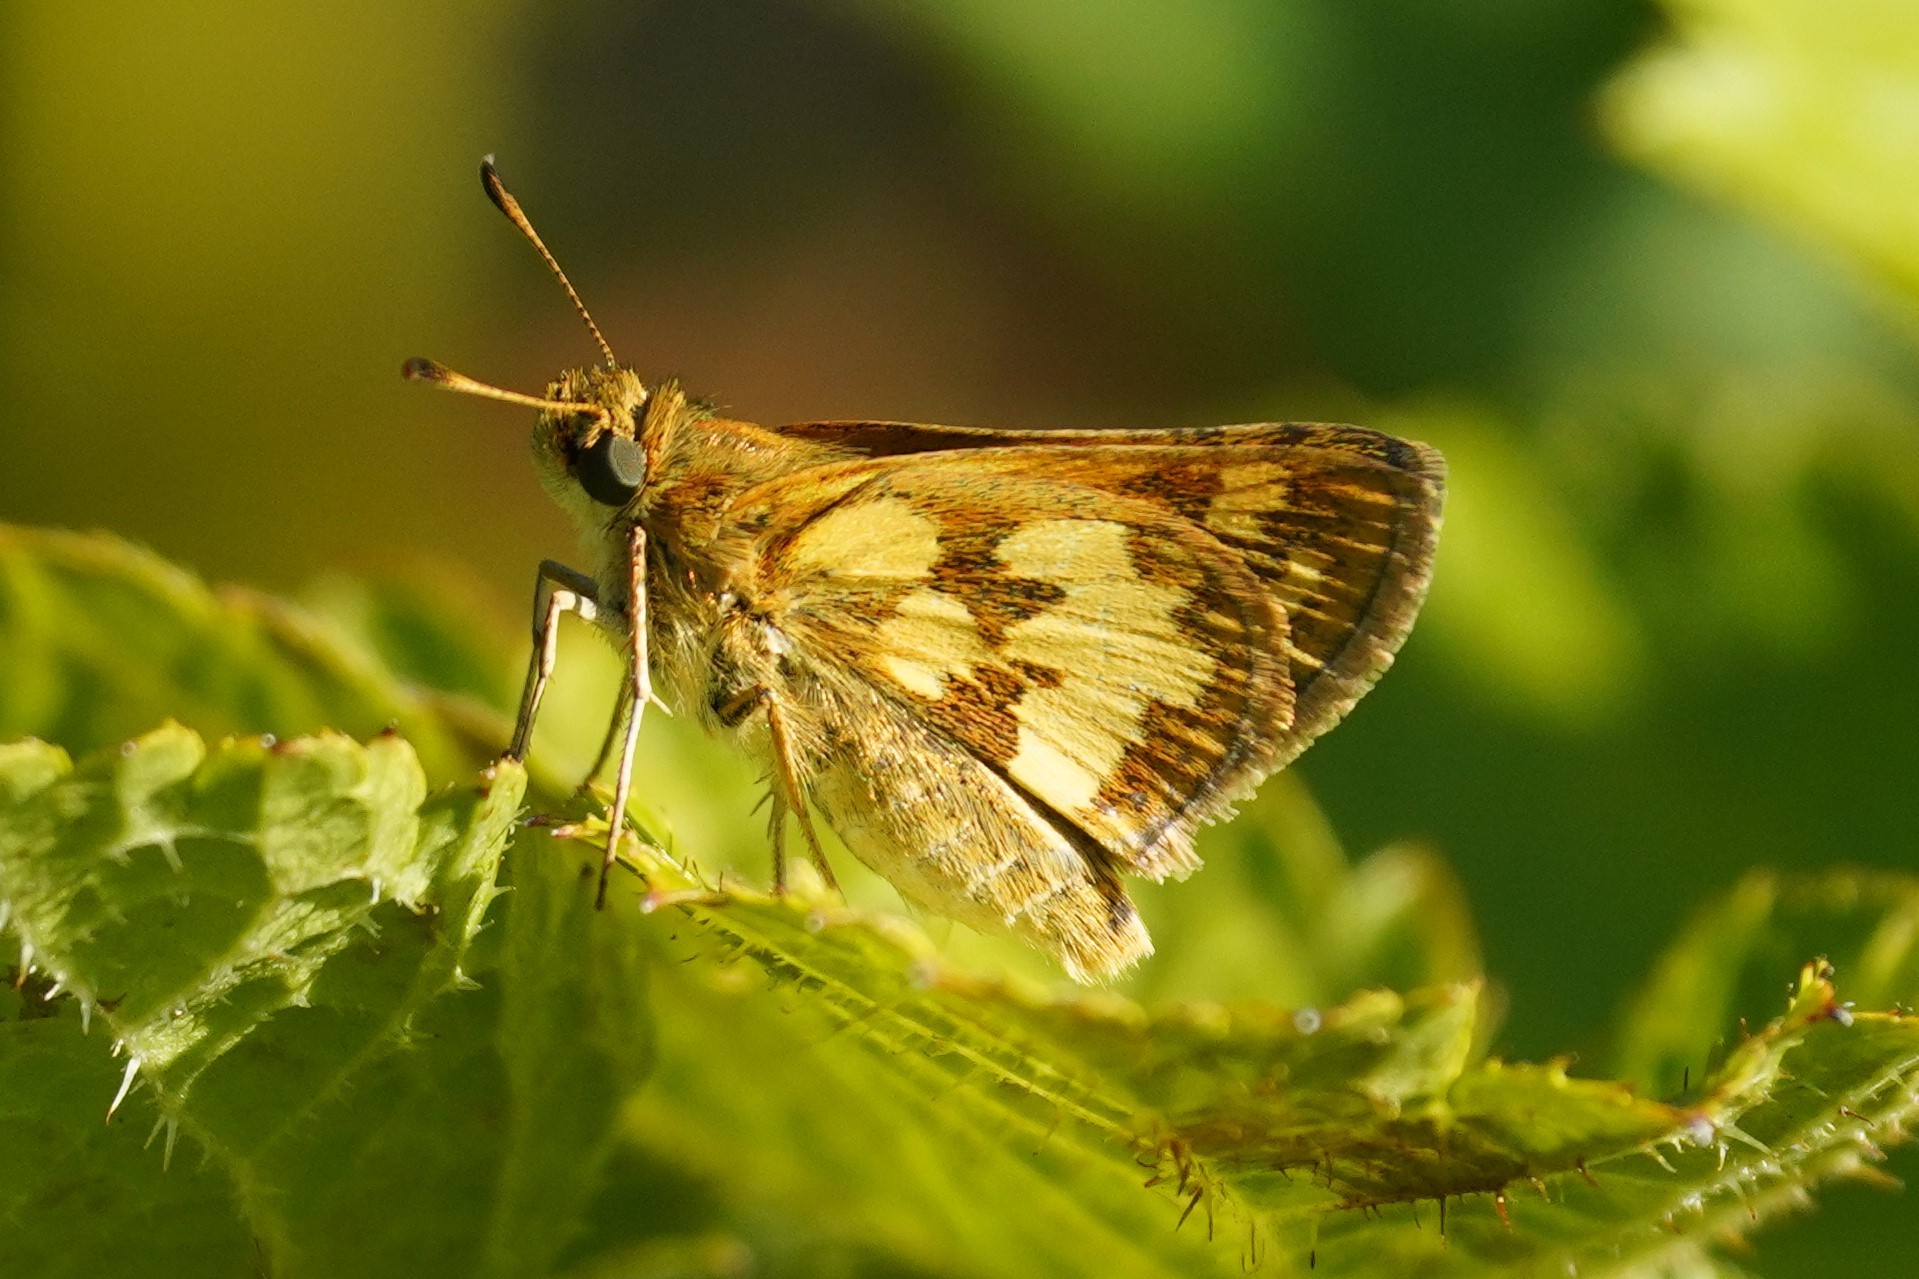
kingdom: Animalia
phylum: Arthropoda
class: Insecta
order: Lepidoptera
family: Hesperiidae
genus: Polites
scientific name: Polites coras
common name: Peck's skipper
